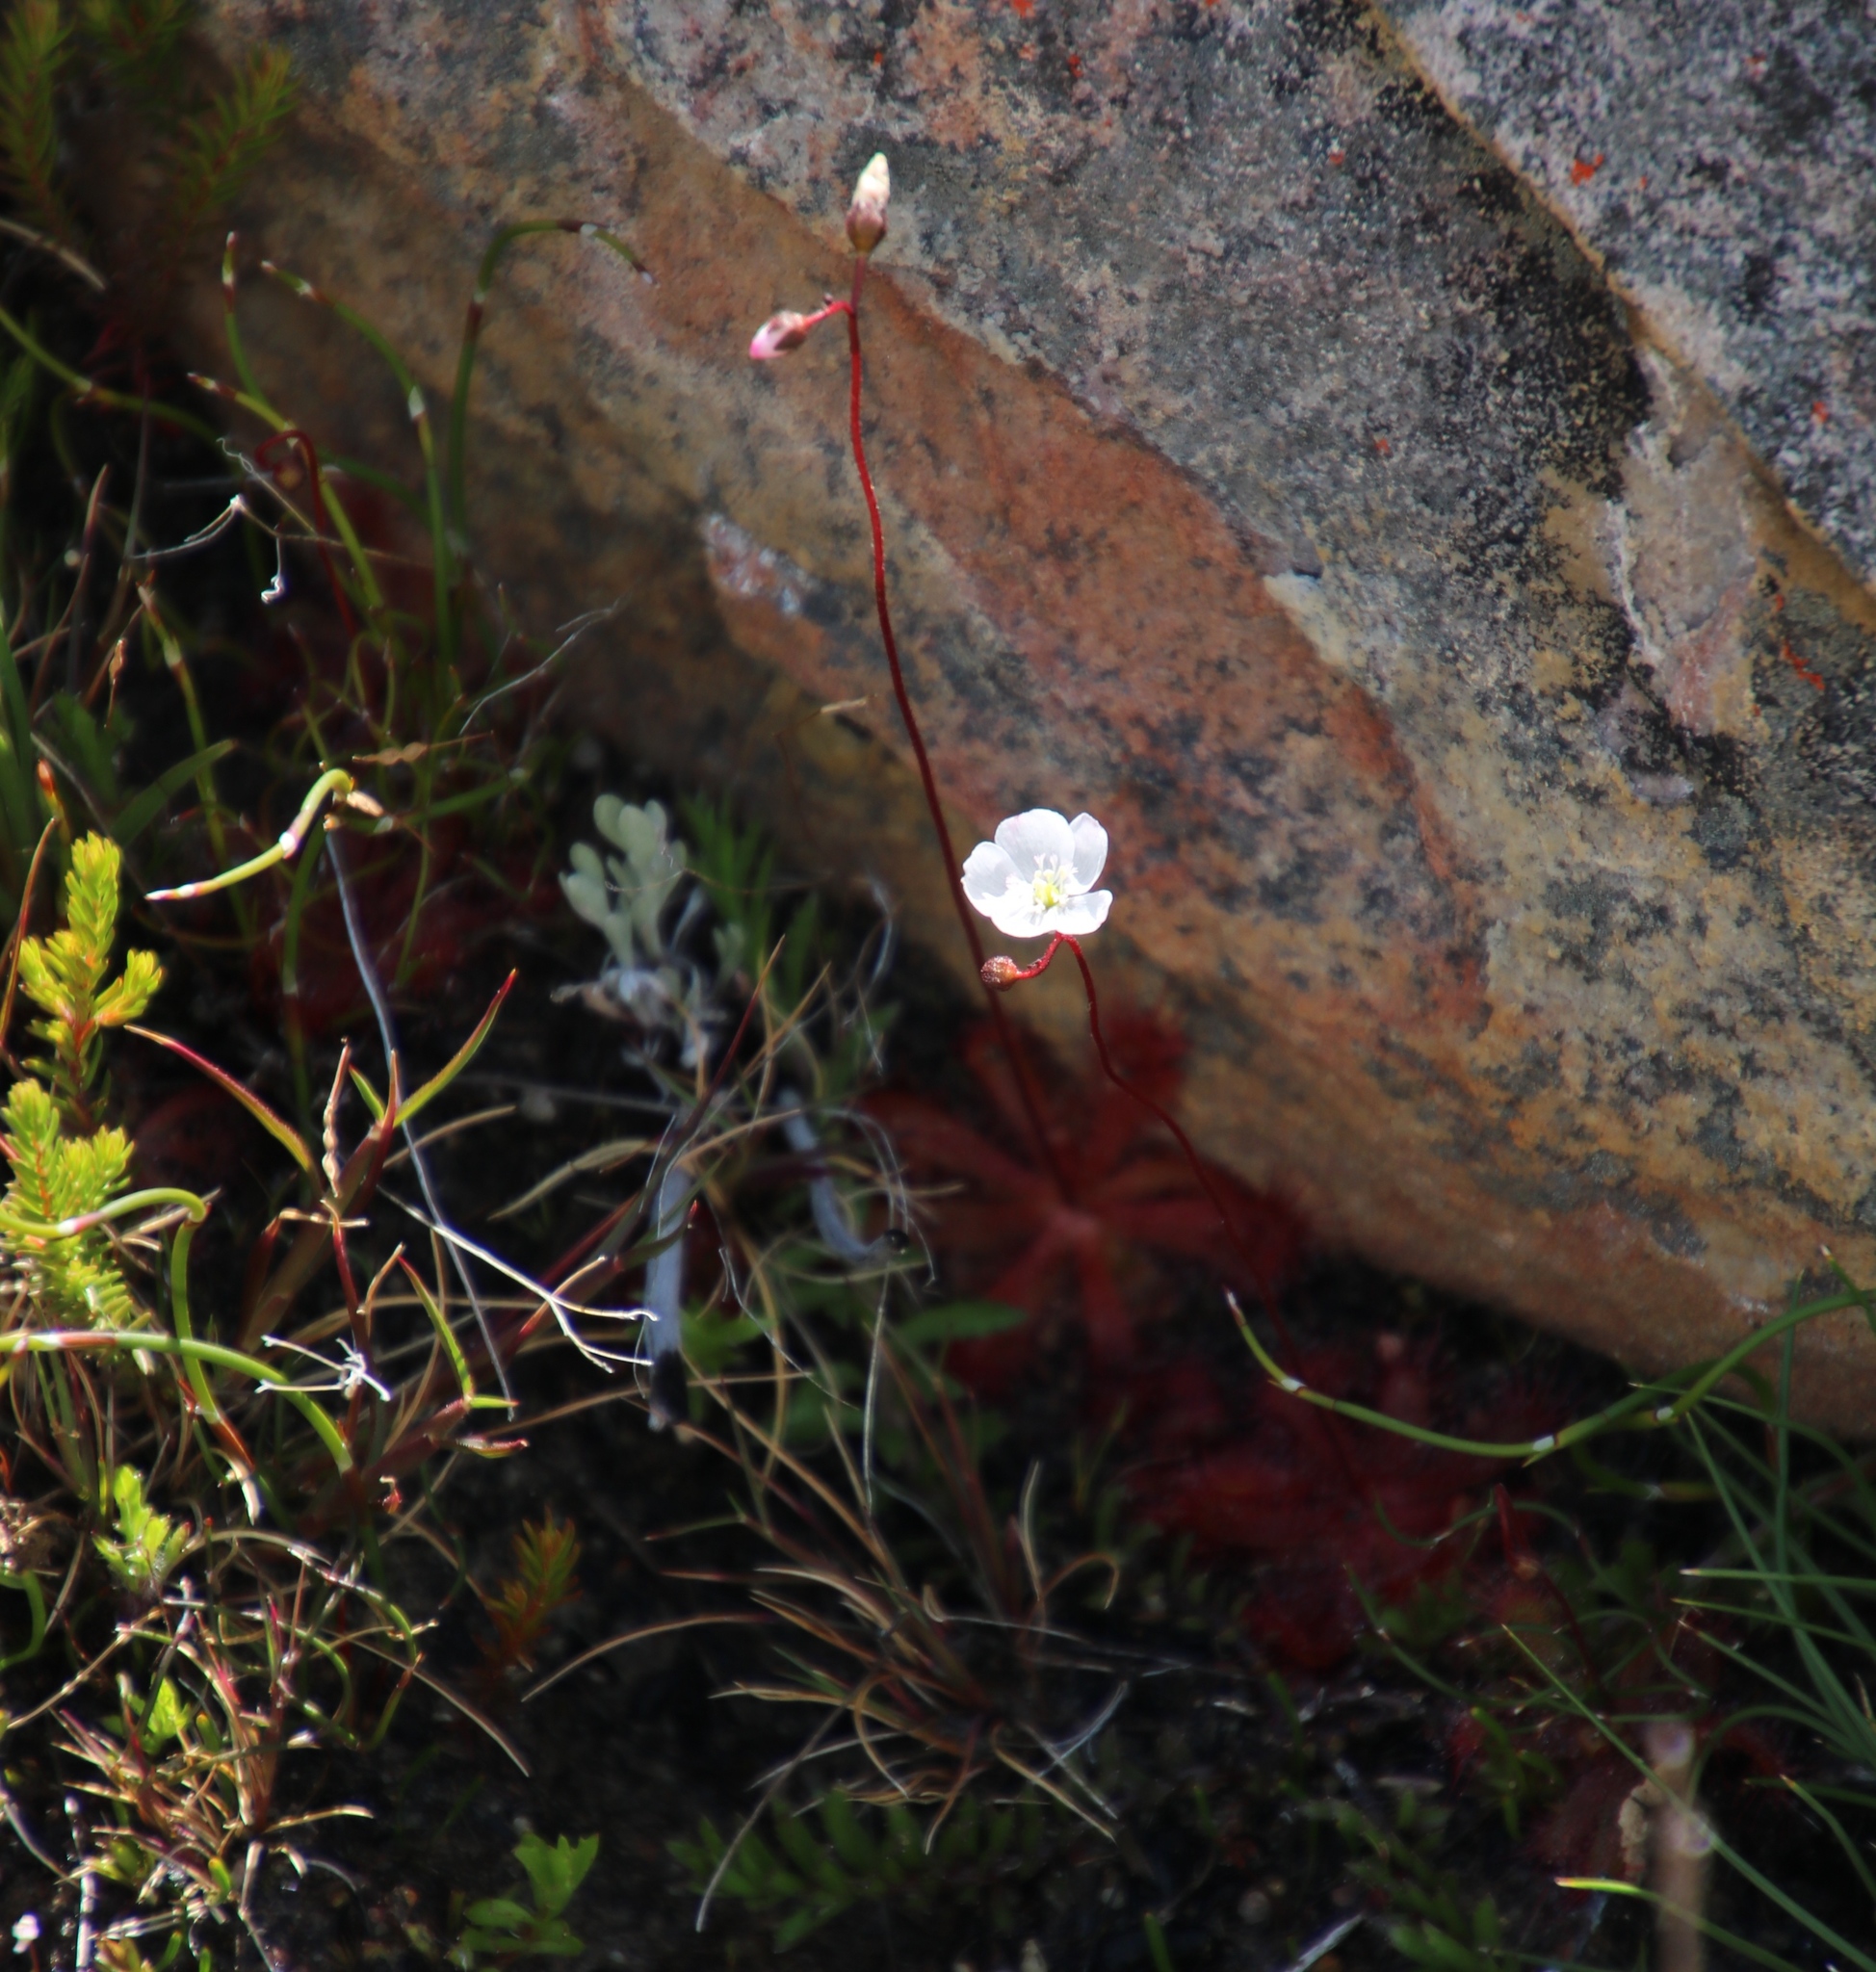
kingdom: Plantae
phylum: Tracheophyta
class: Magnoliopsida
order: Caryophyllales
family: Droseraceae
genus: Drosera
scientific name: Drosera trinervia
